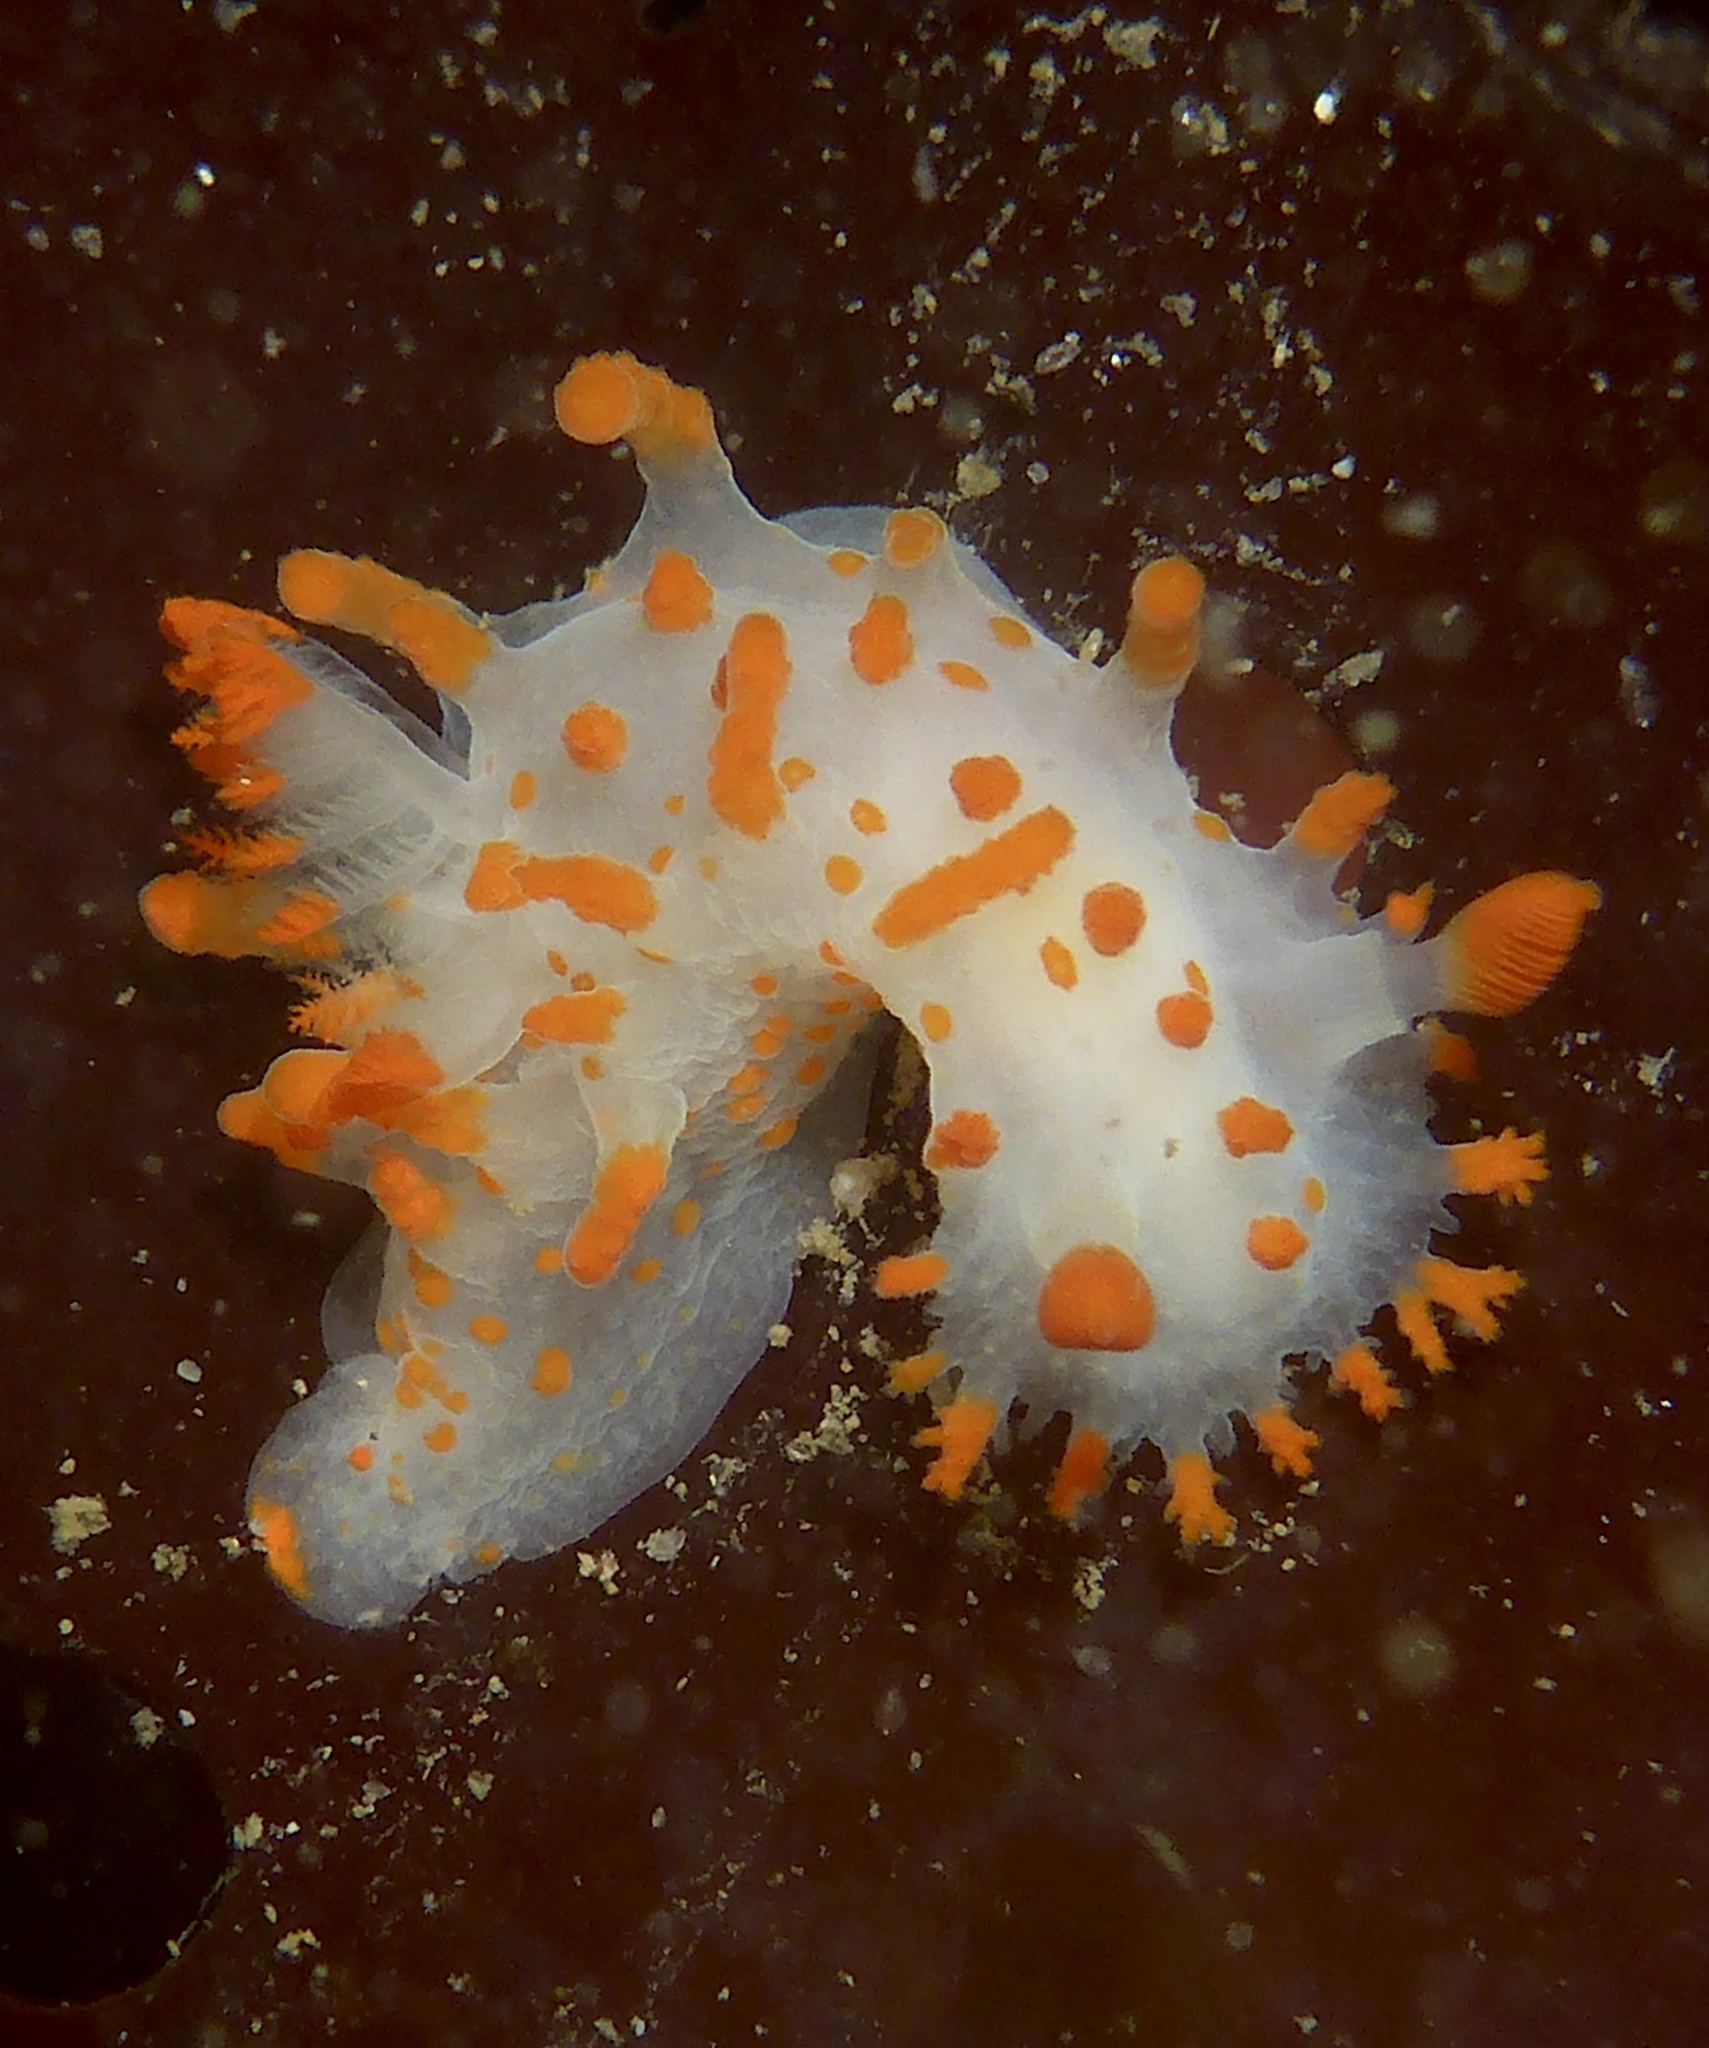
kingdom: Animalia
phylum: Mollusca
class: Gastropoda
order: Nudibranchia
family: Polyceridae
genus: Triopha
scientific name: Triopha catalinae
